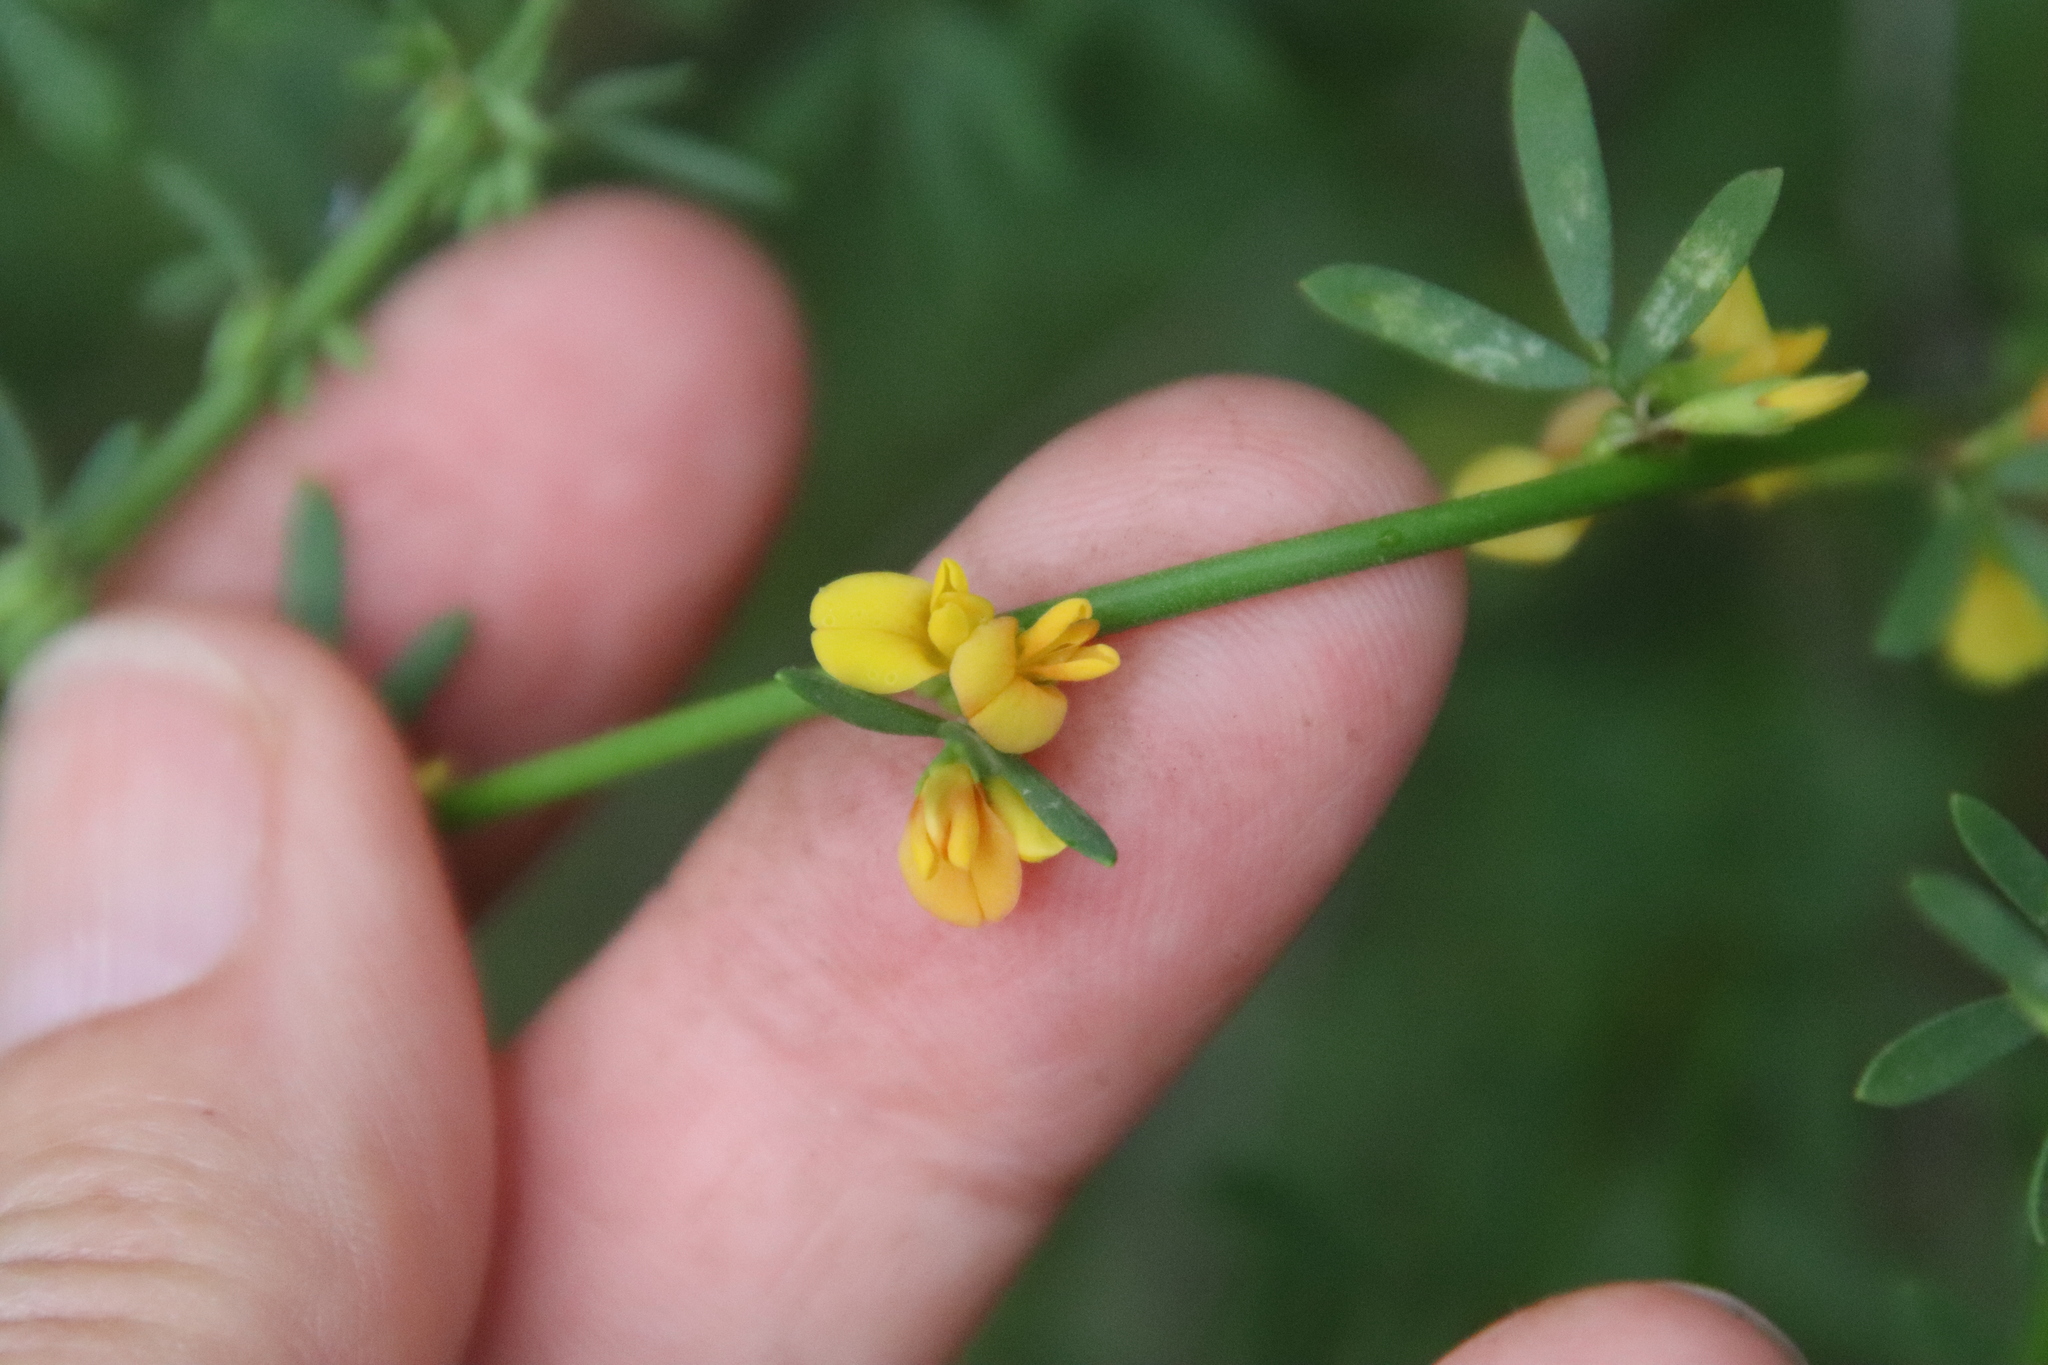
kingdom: Plantae
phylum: Tracheophyta
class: Magnoliopsida
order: Fabales
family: Fabaceae
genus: Acmispon
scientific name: Acmispon glaber
